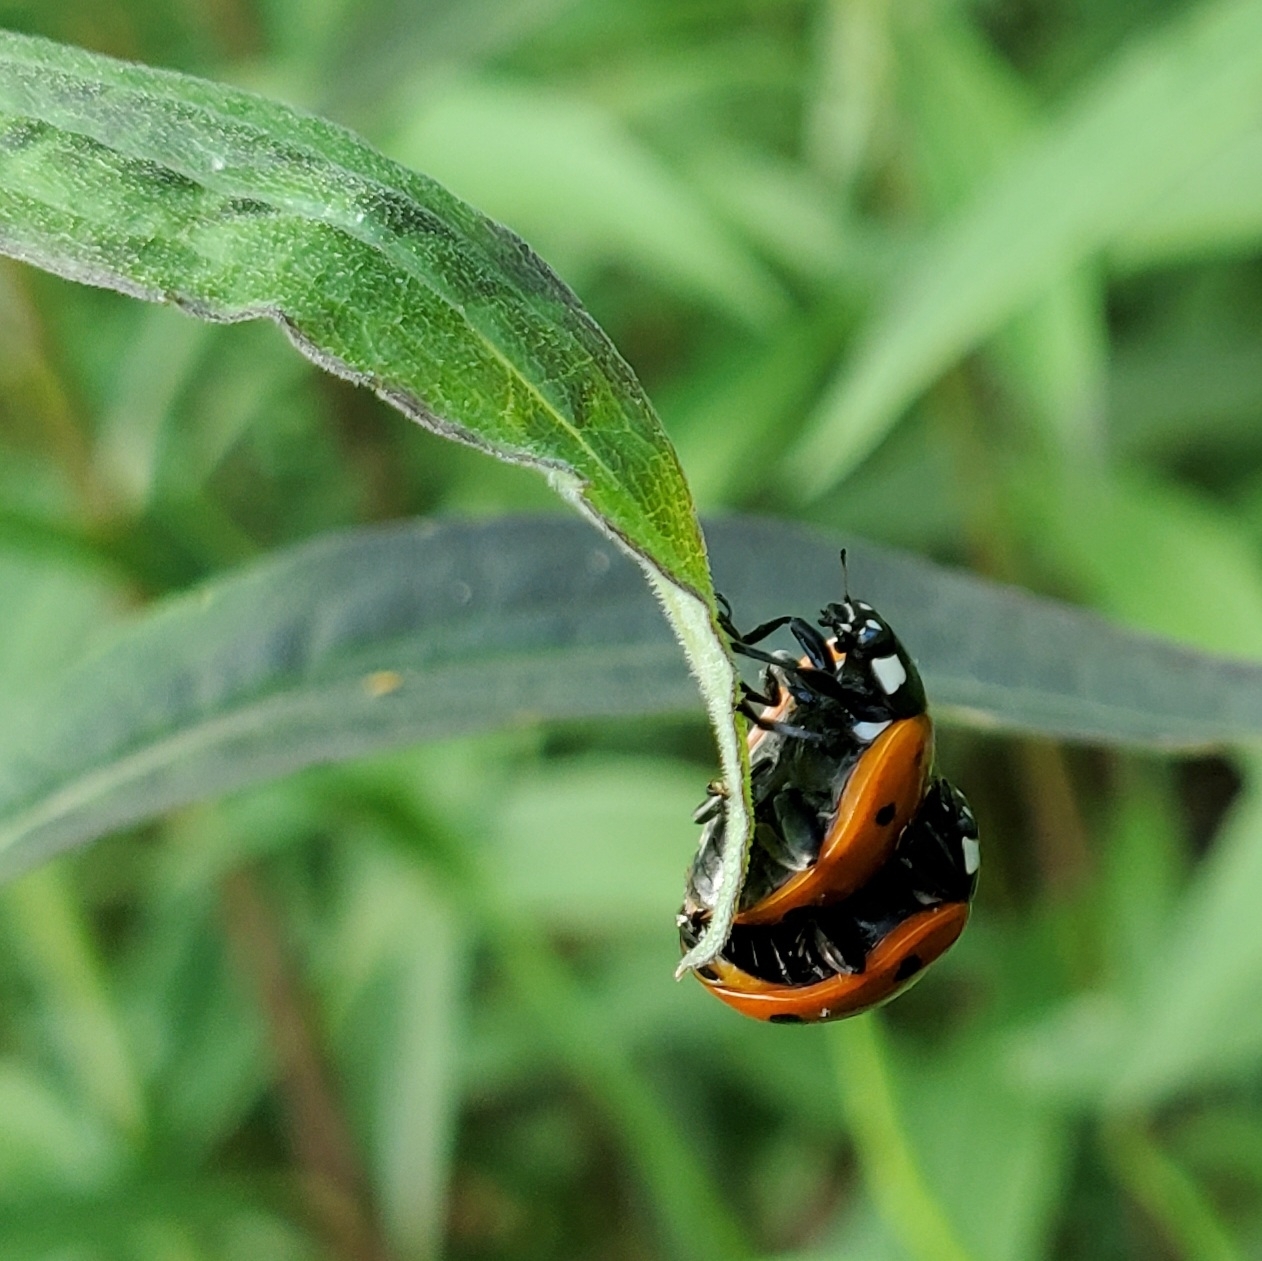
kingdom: Animalia
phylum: Arthropoda
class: Insecta
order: Coleoptera
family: Coccinellidae
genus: Coccinella
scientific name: Coccinella septempunctata
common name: Sevenspotted lady beetle
